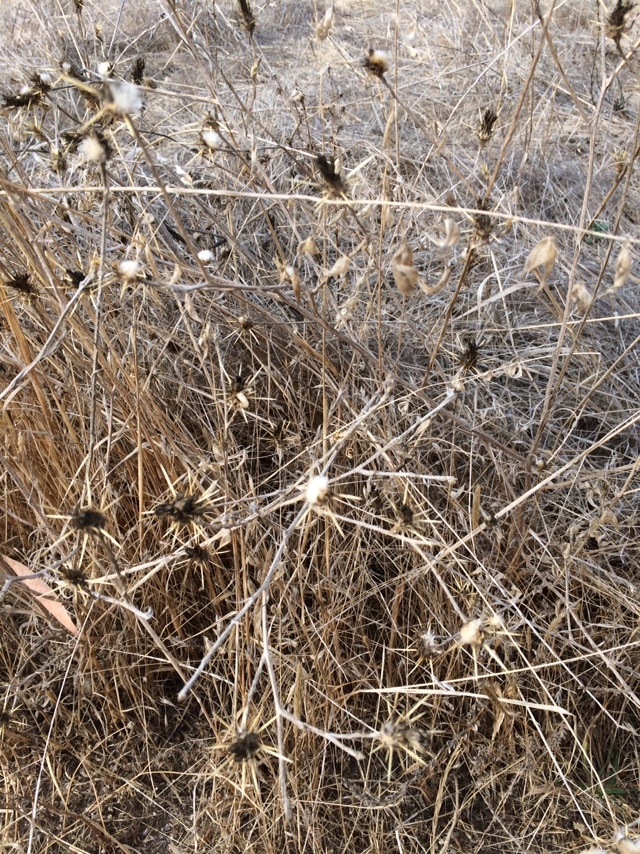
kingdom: Plantae
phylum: Tracheophyta
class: Magnoliopsida
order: Asterales
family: Asteraceae
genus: Centaurea
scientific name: Centaurea solstitialis
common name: Yellow star-thistle
